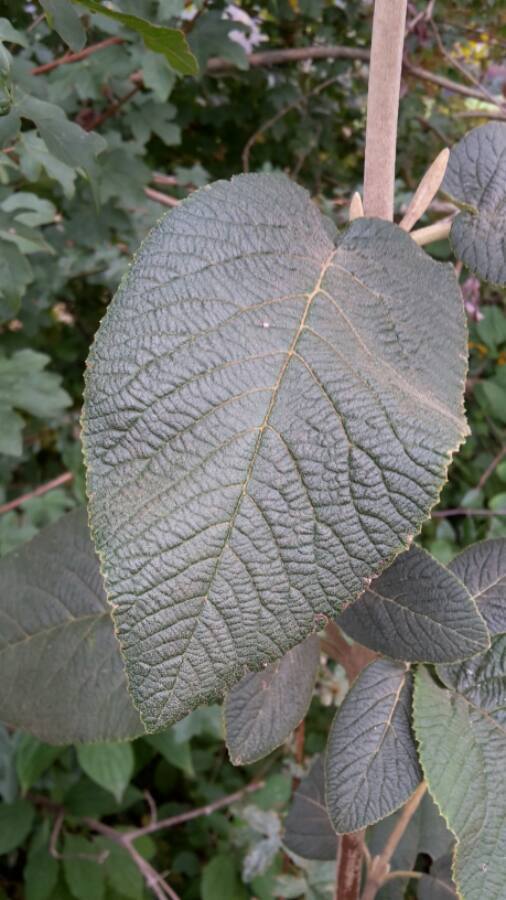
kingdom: Plantae
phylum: Tracheophyta
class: Magnoliopsida
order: Dipsacales
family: Viburnaceae
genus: Viburnum
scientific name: Viburnum lantana
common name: Wayfaring tree
